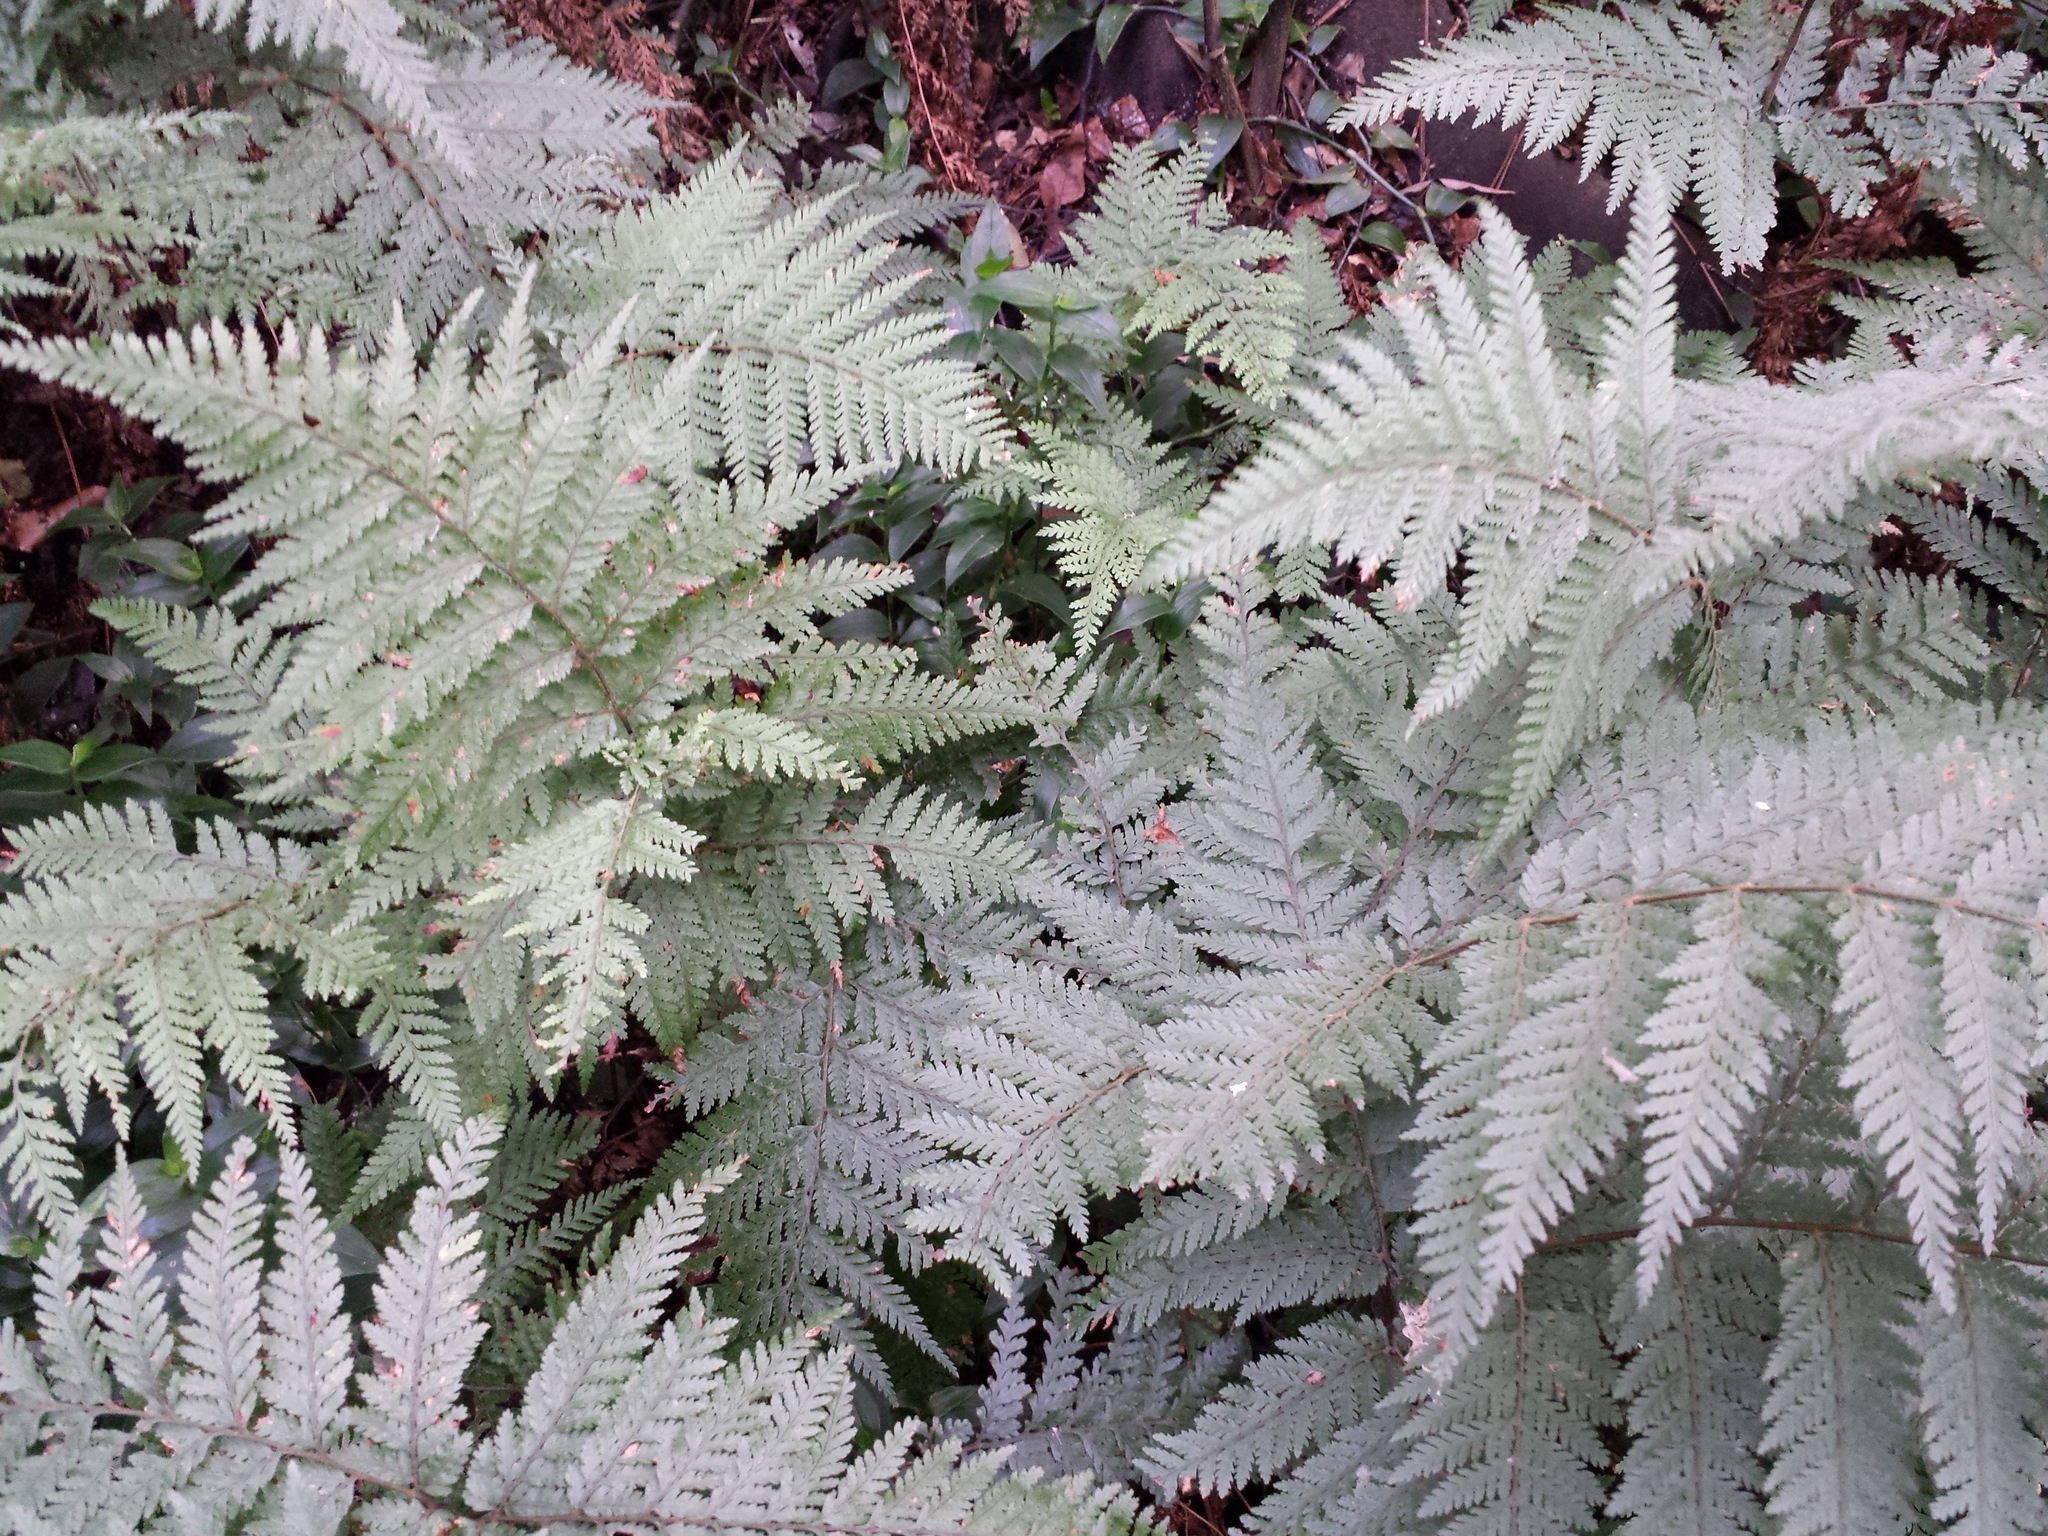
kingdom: Plantae
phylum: Tracheophyta
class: Polypodiopsida
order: Polypodiales
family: Dryopteridaceae
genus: Parapolystichum
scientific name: Parapolystichum microsorum
